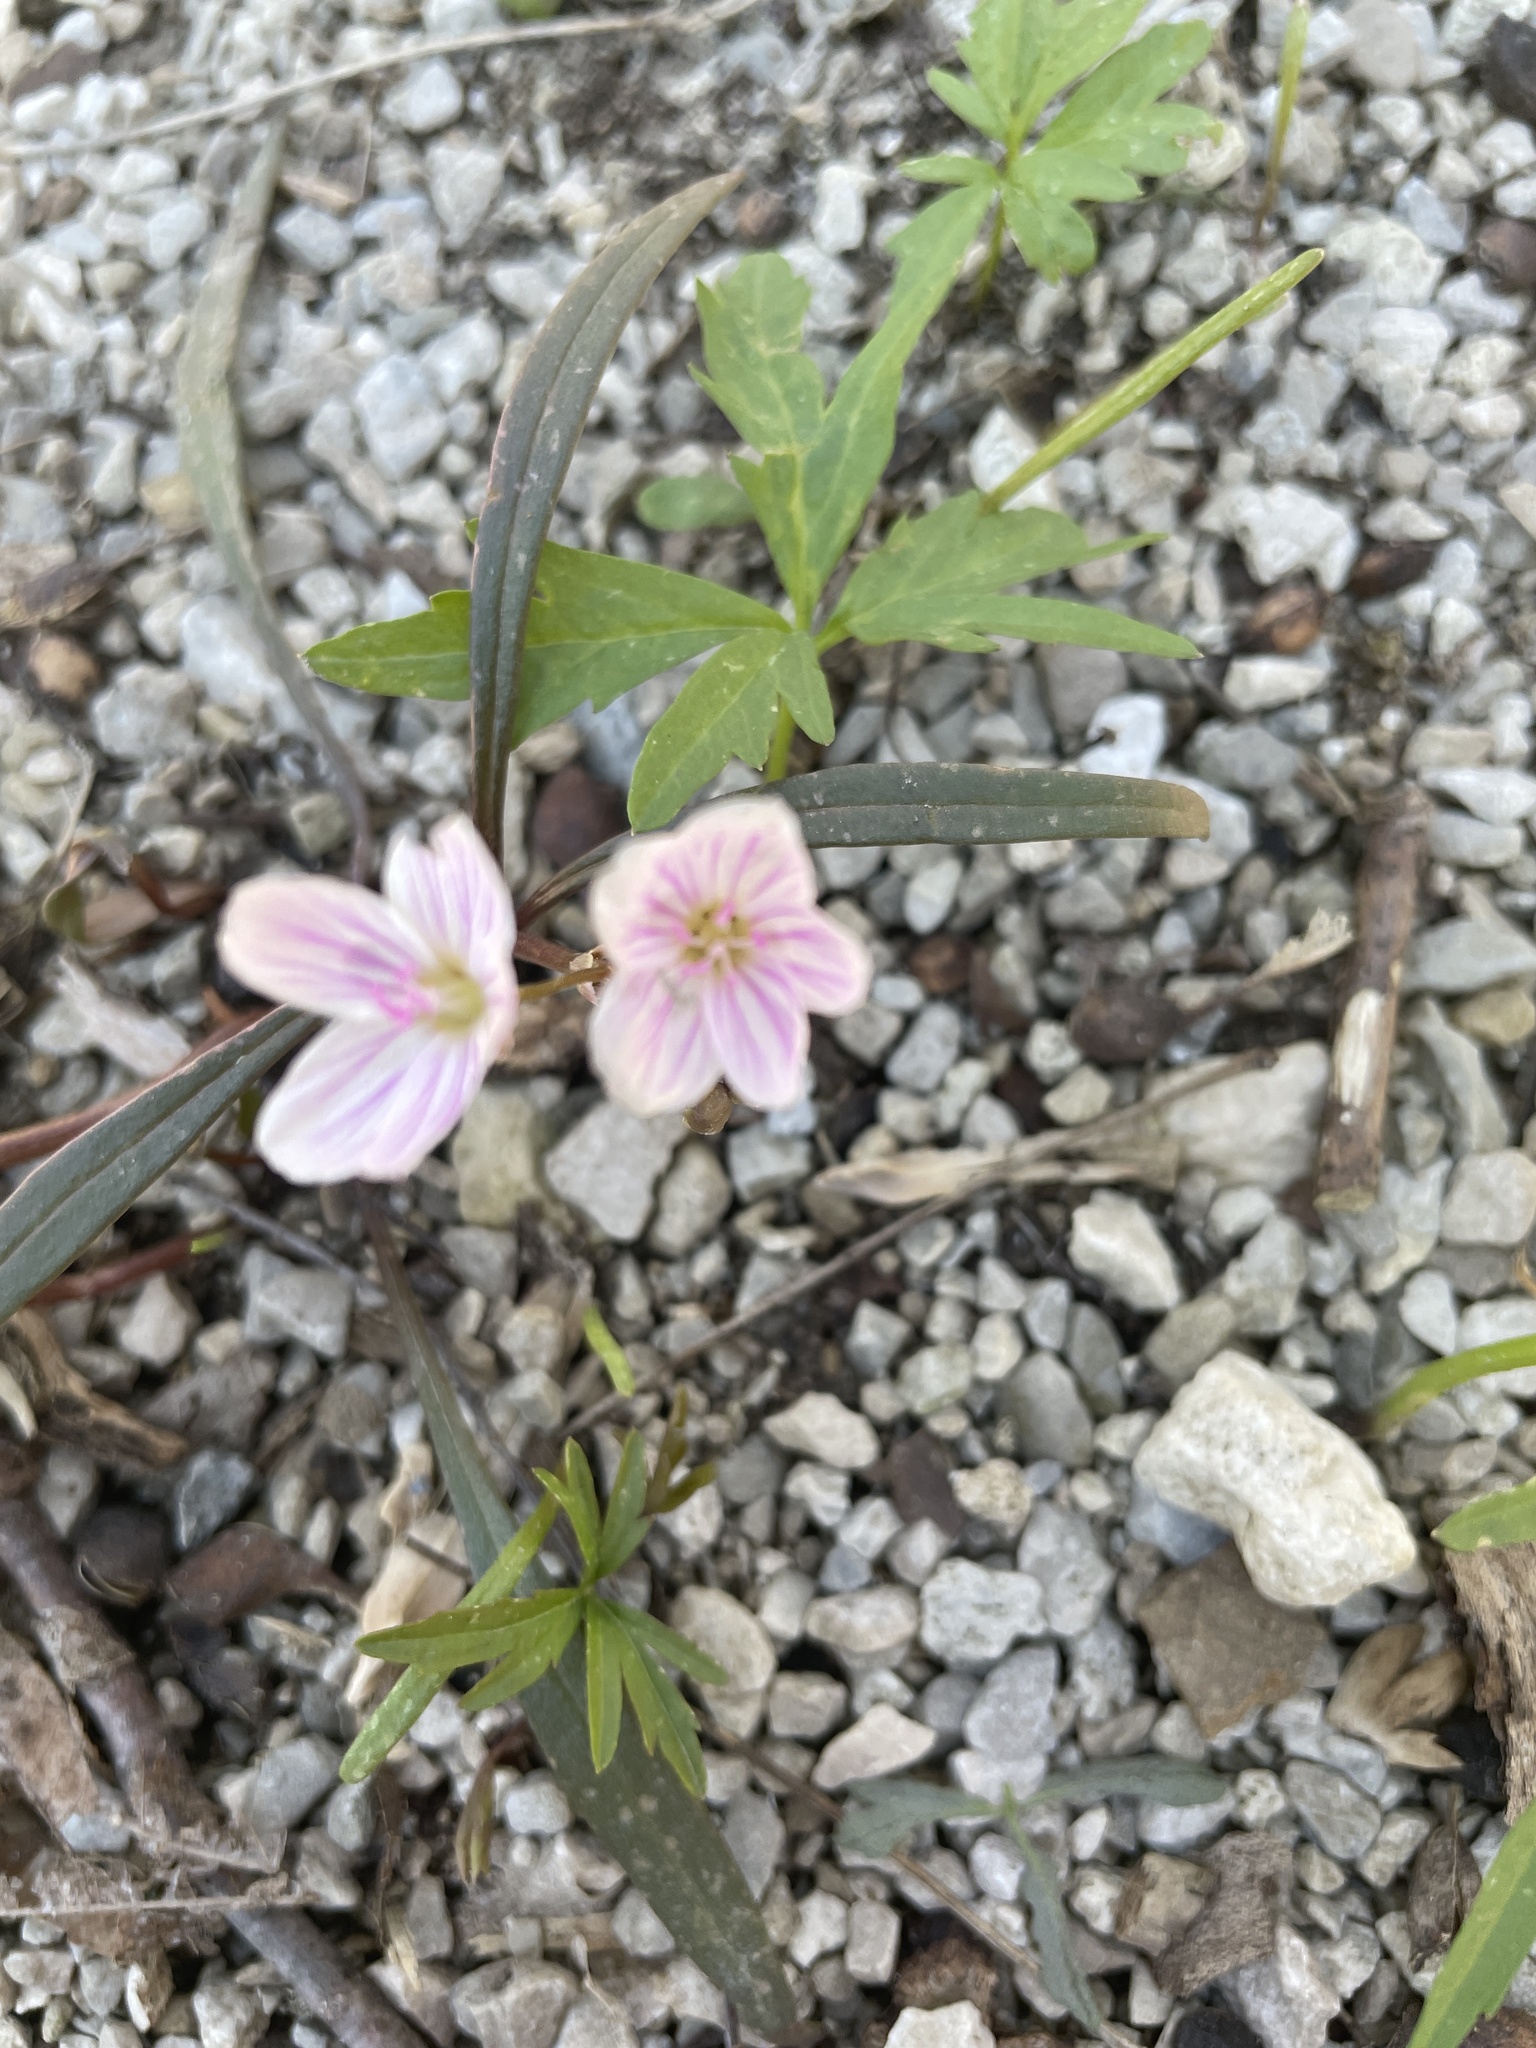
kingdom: Plantae
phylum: Tracheophyta
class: Magnoliopsida
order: Caryophyllales
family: Montiaceae
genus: Claytonia
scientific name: Claytonia virginica
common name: Virginia springbeauty
